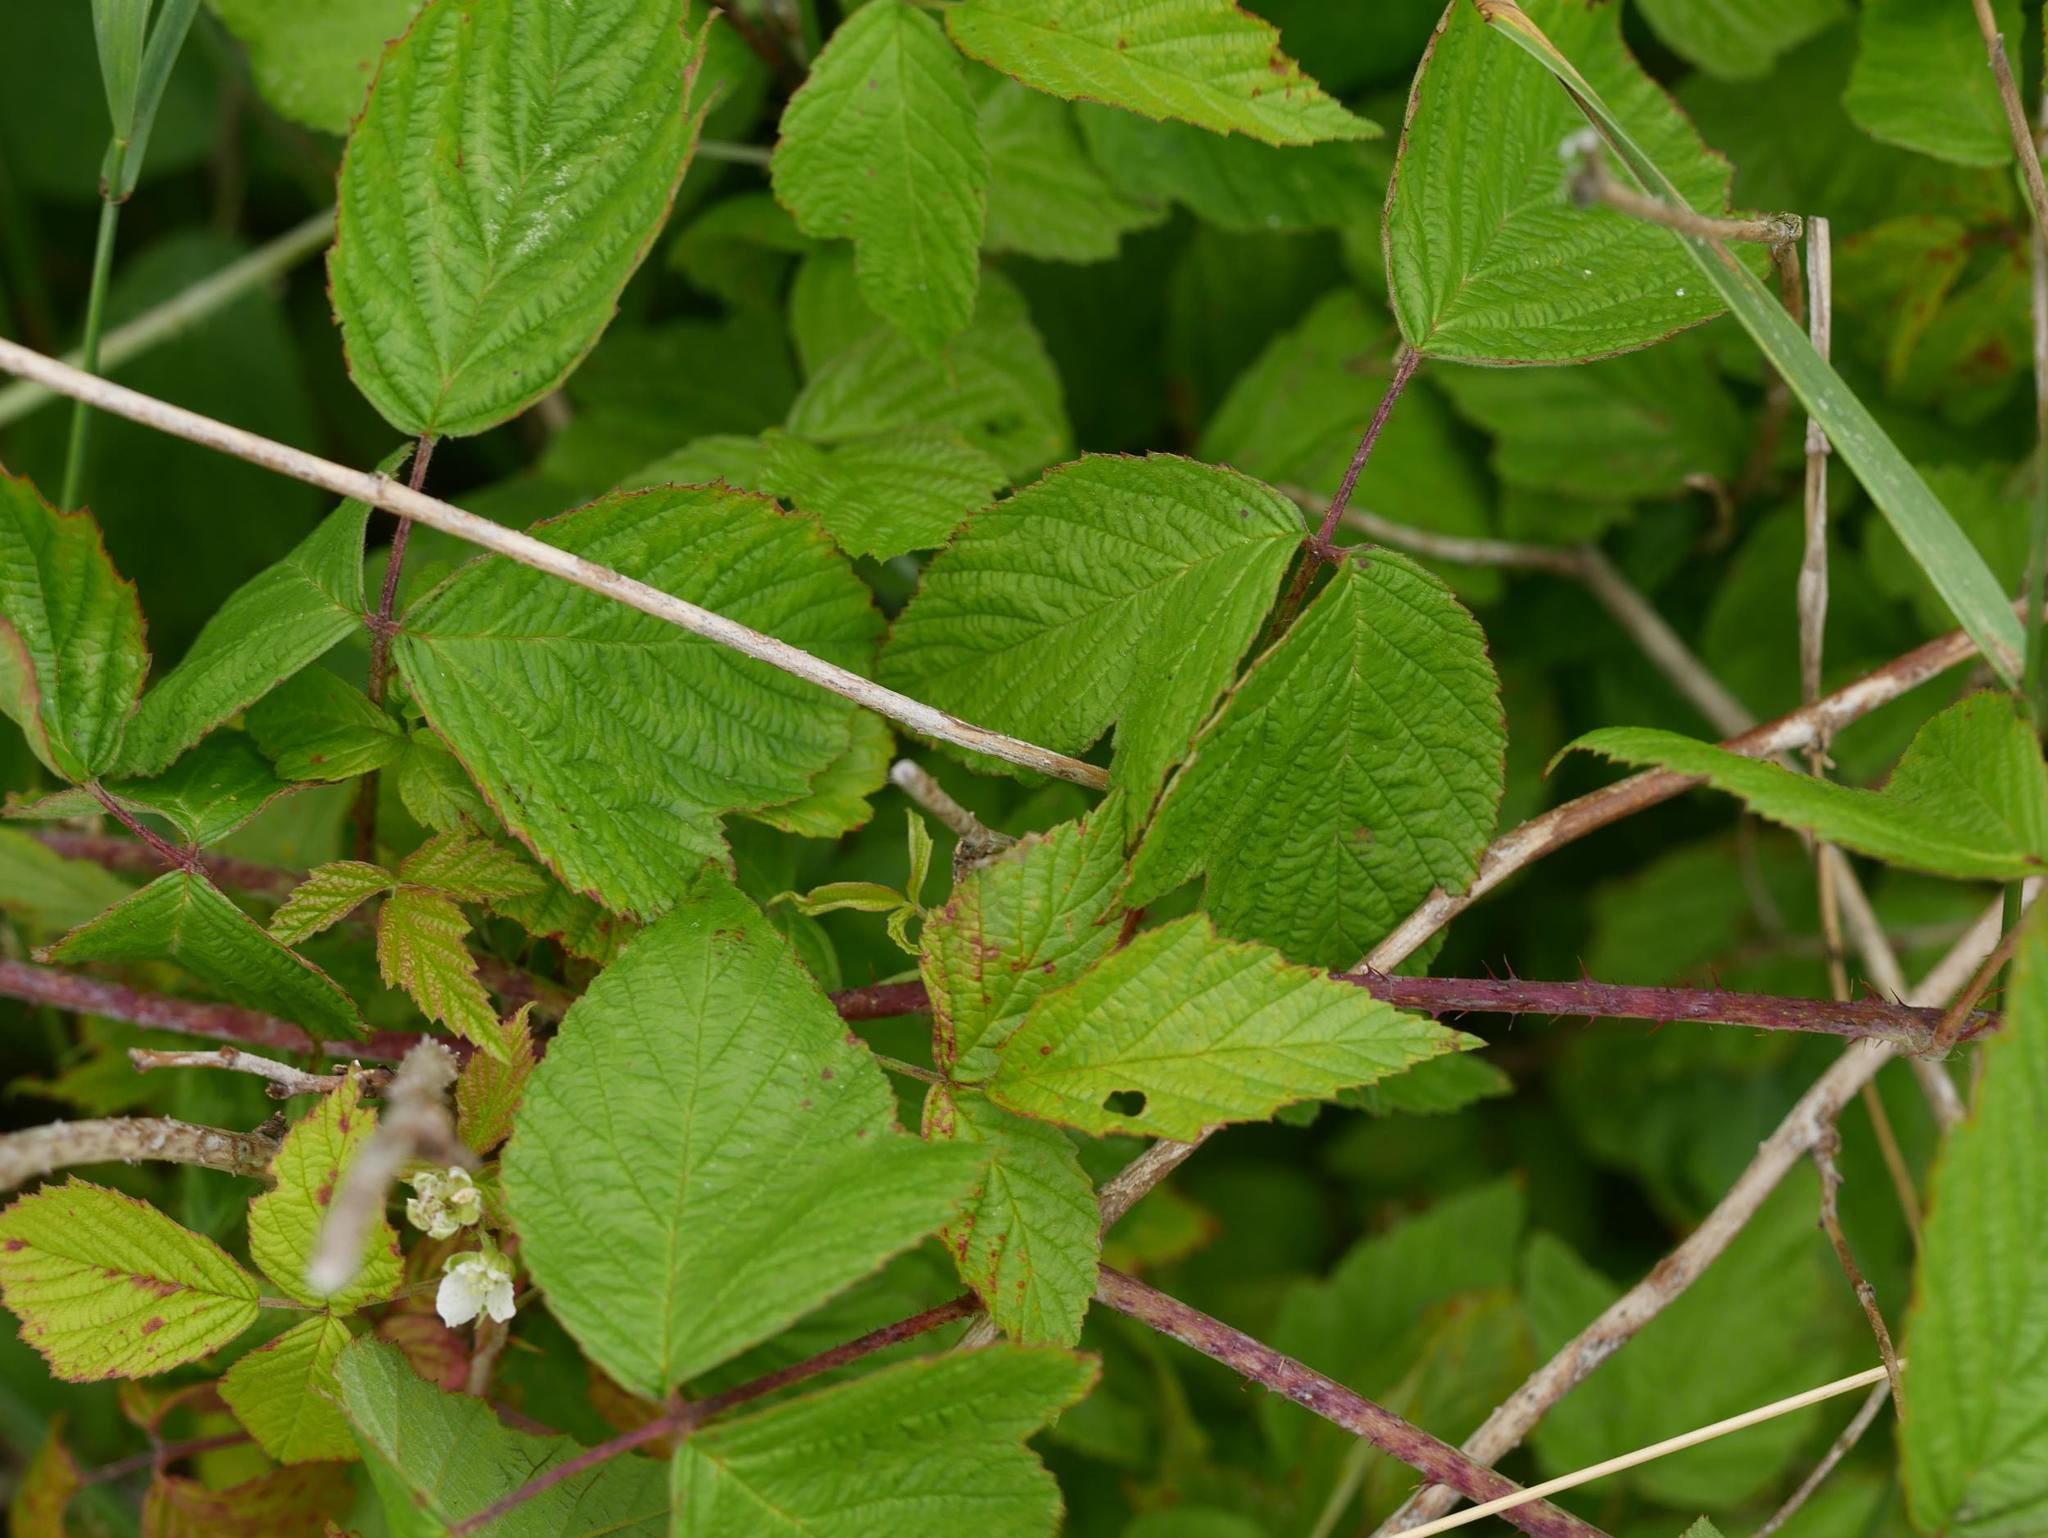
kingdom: Plantae
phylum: Tracheophyta
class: Magnoliopsida
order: Rosales
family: Rosaceae
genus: Rubus
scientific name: Rubus caesius
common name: Dewberry
